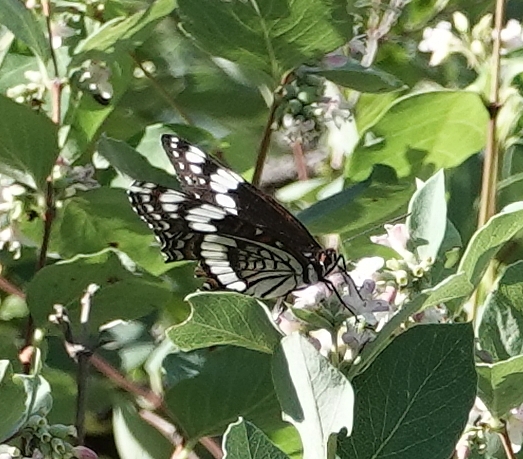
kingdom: Animalia
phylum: Arthropoda
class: Insecta
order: Lepidoptera
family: Nymphalidae
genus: Limenitis
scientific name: Limenitis weidemeyerii
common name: Weidemeyer's admiral
